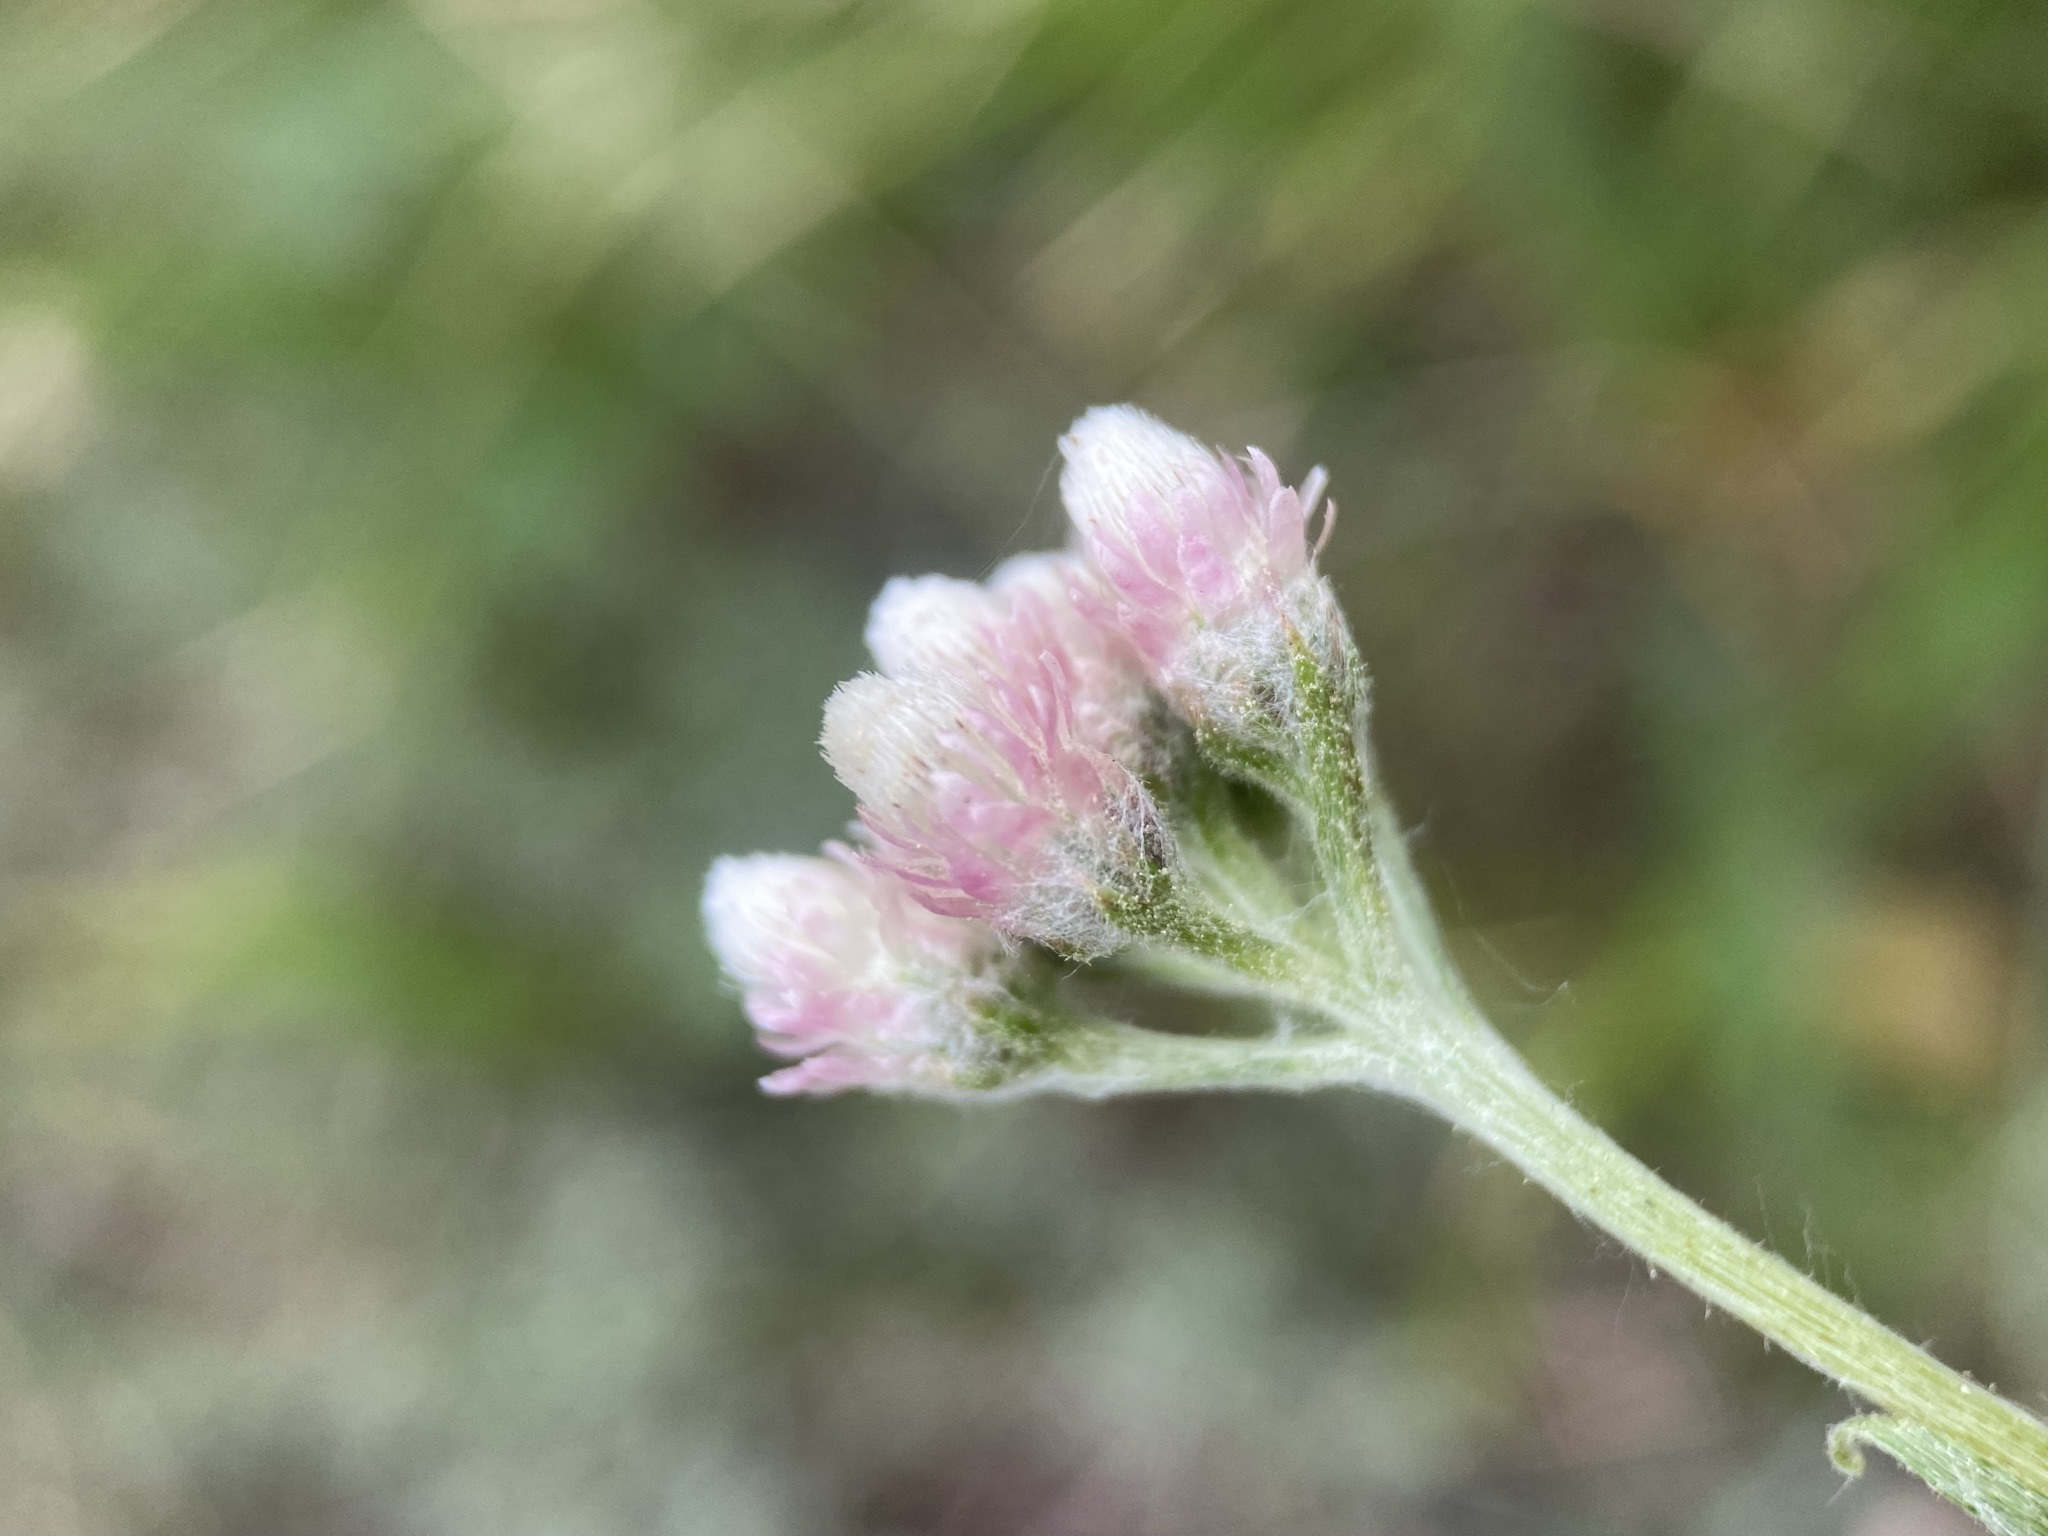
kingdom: Plantae
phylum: Tracheophyta
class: Magnoliopsida
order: Asterales
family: Asteraceae
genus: Antennaria
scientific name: Antennaria rosea
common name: Rosy pussytoes
